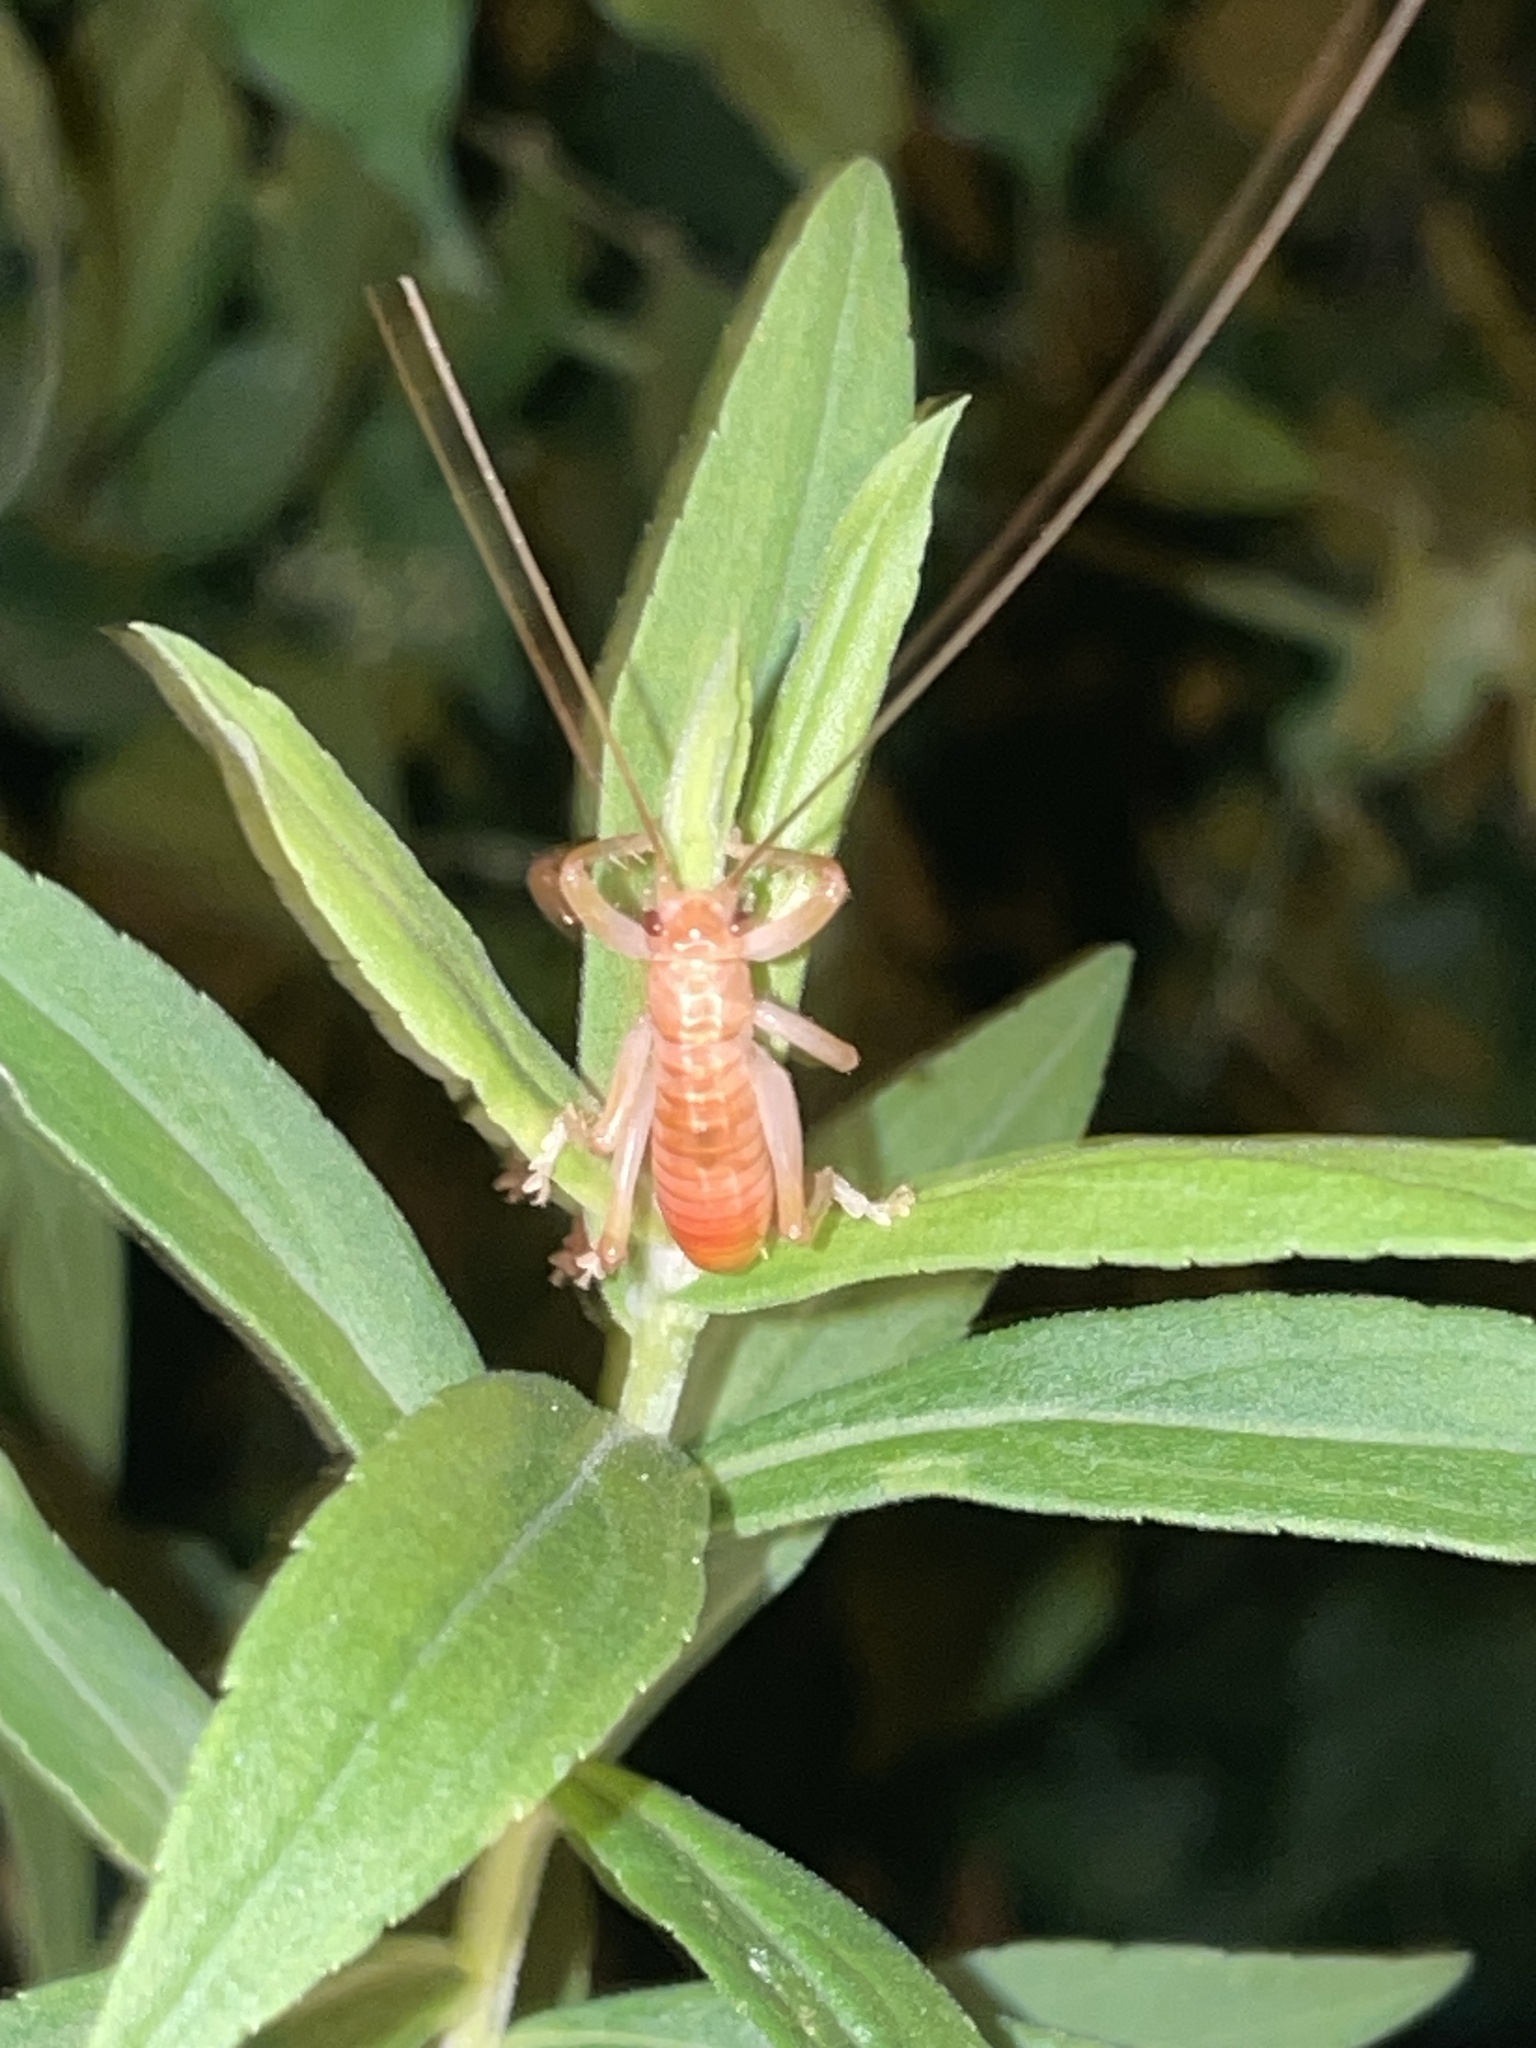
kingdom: Animalia
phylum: Arthropoda
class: Insecta
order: Orthoptera
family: Gryllacrididae
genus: Camptonotus
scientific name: Camptonotus carolinensis
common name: Carolina leaf-roller
